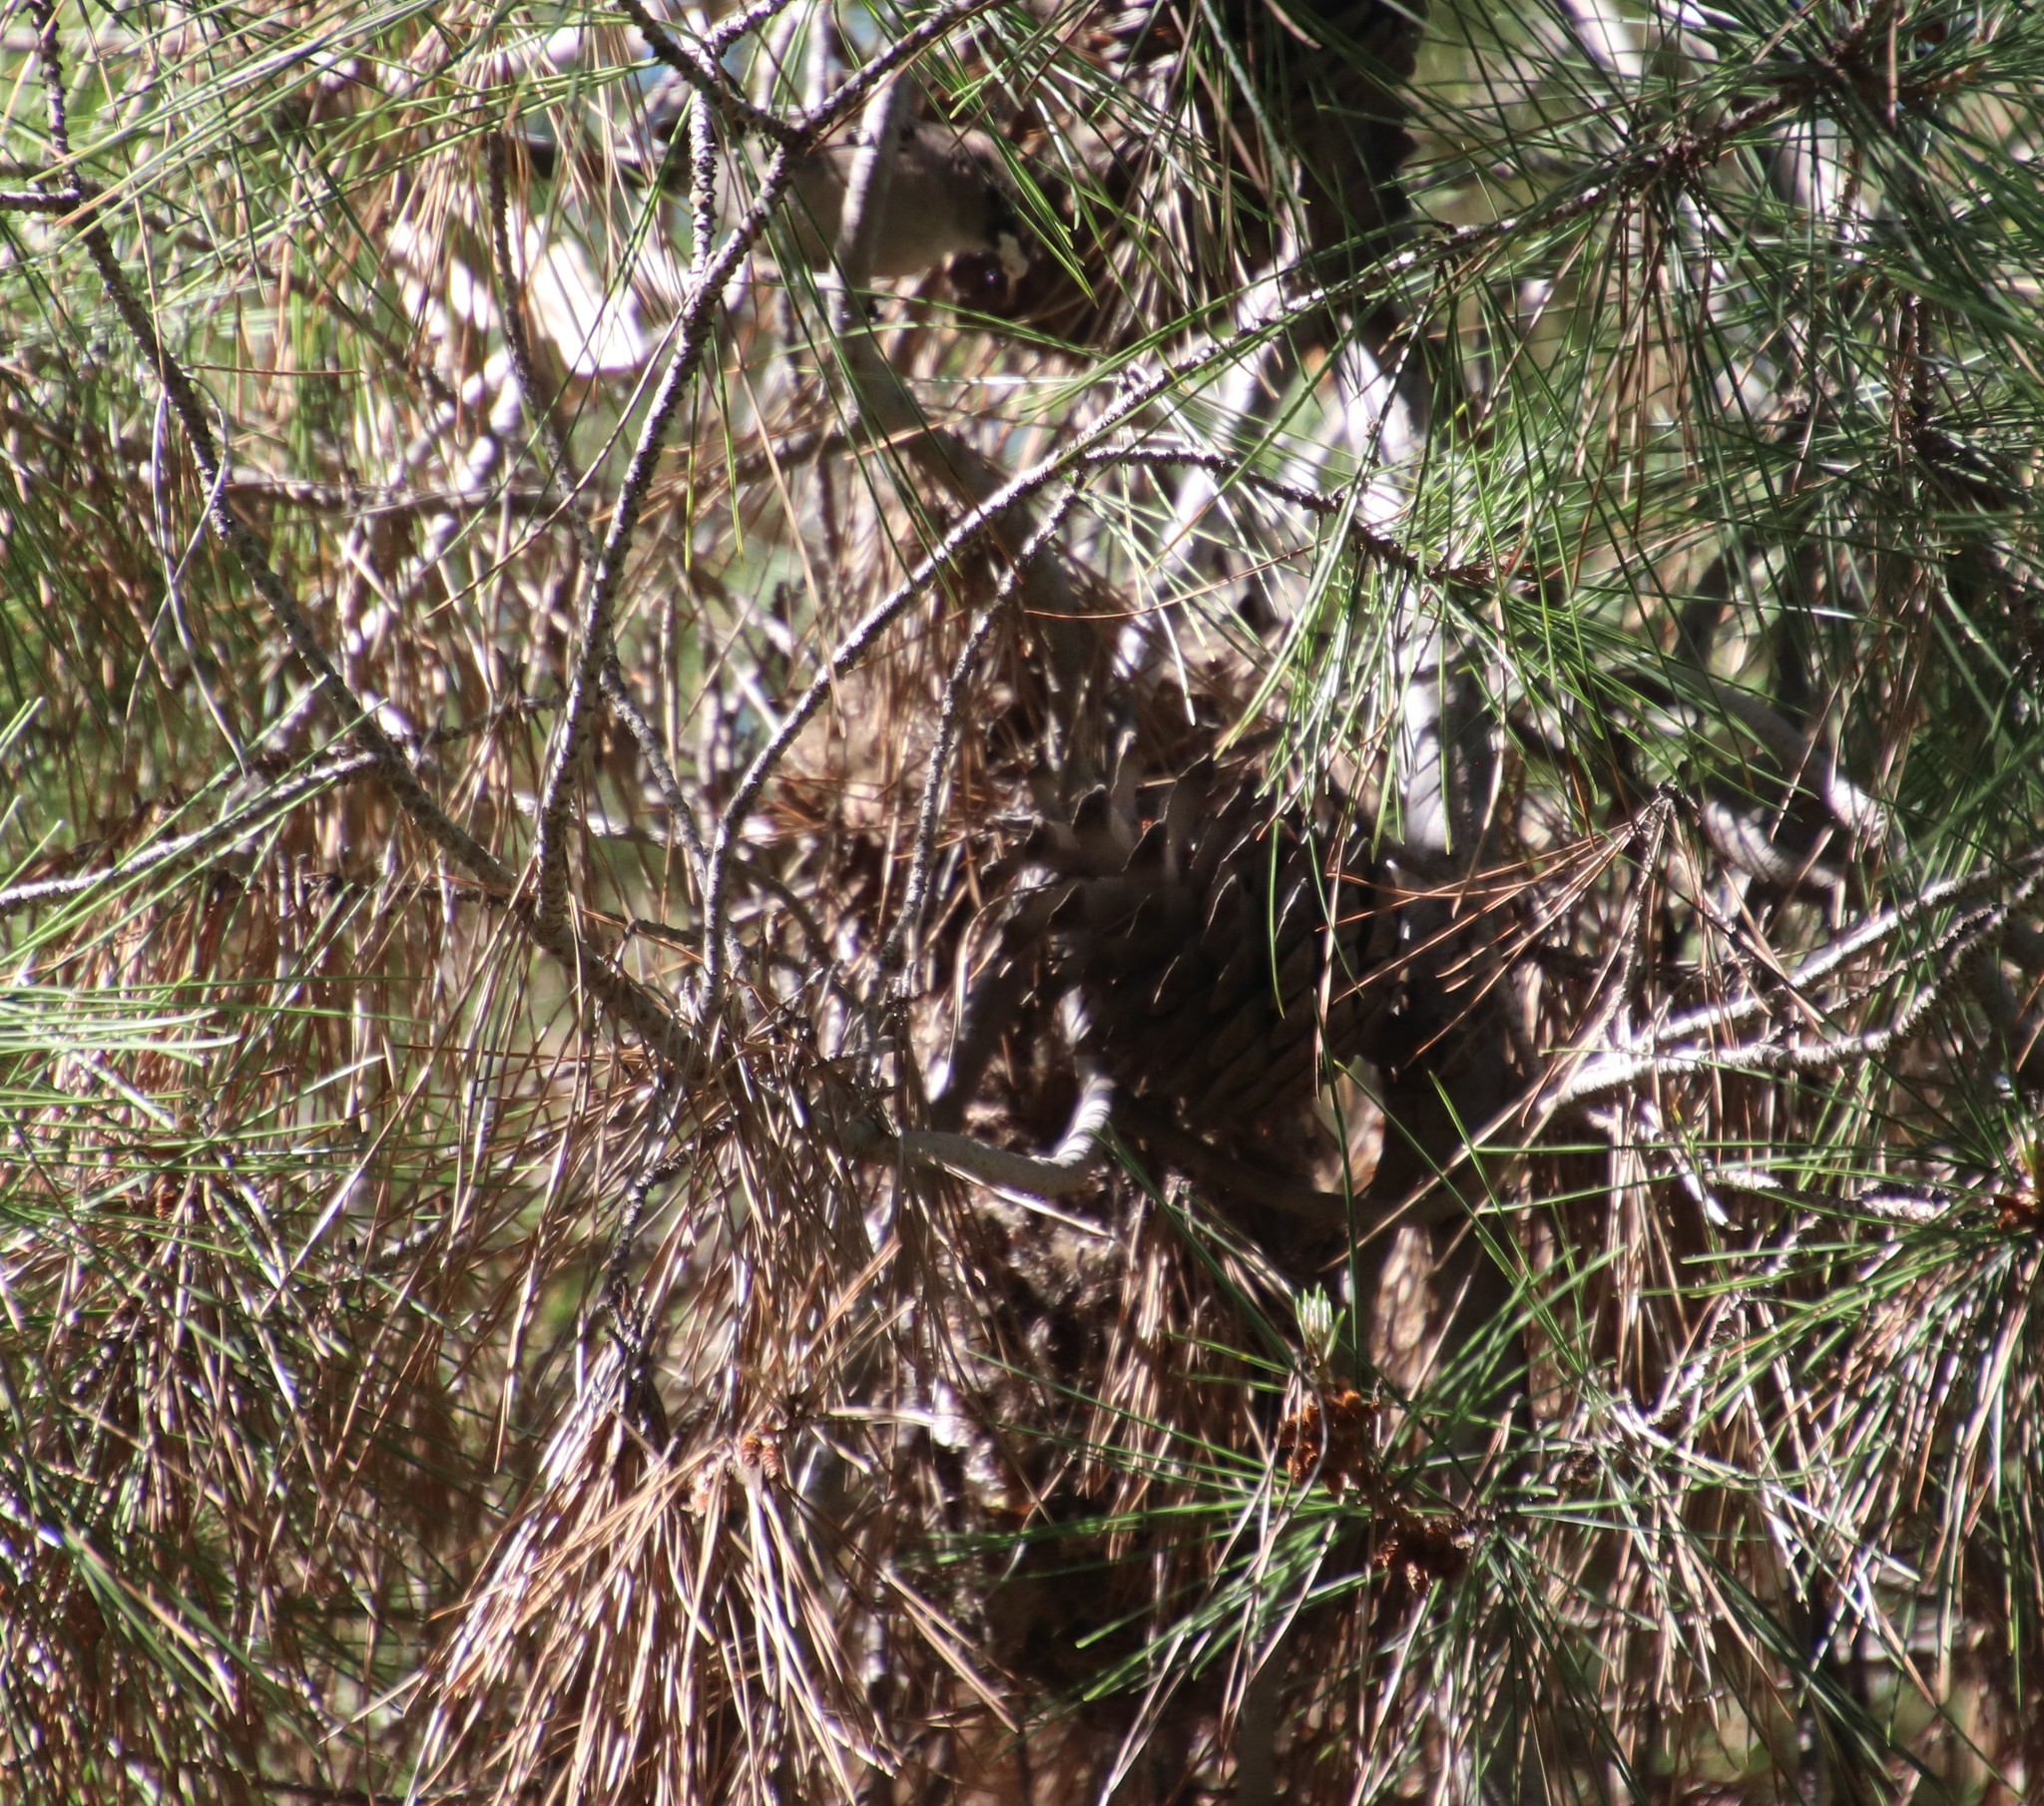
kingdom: Animalia
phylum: Chordata
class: Aves
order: Passeriformes
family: Aegithalidae
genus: Psaltriparus
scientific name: Psaltriparus minimus
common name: American bushtit
